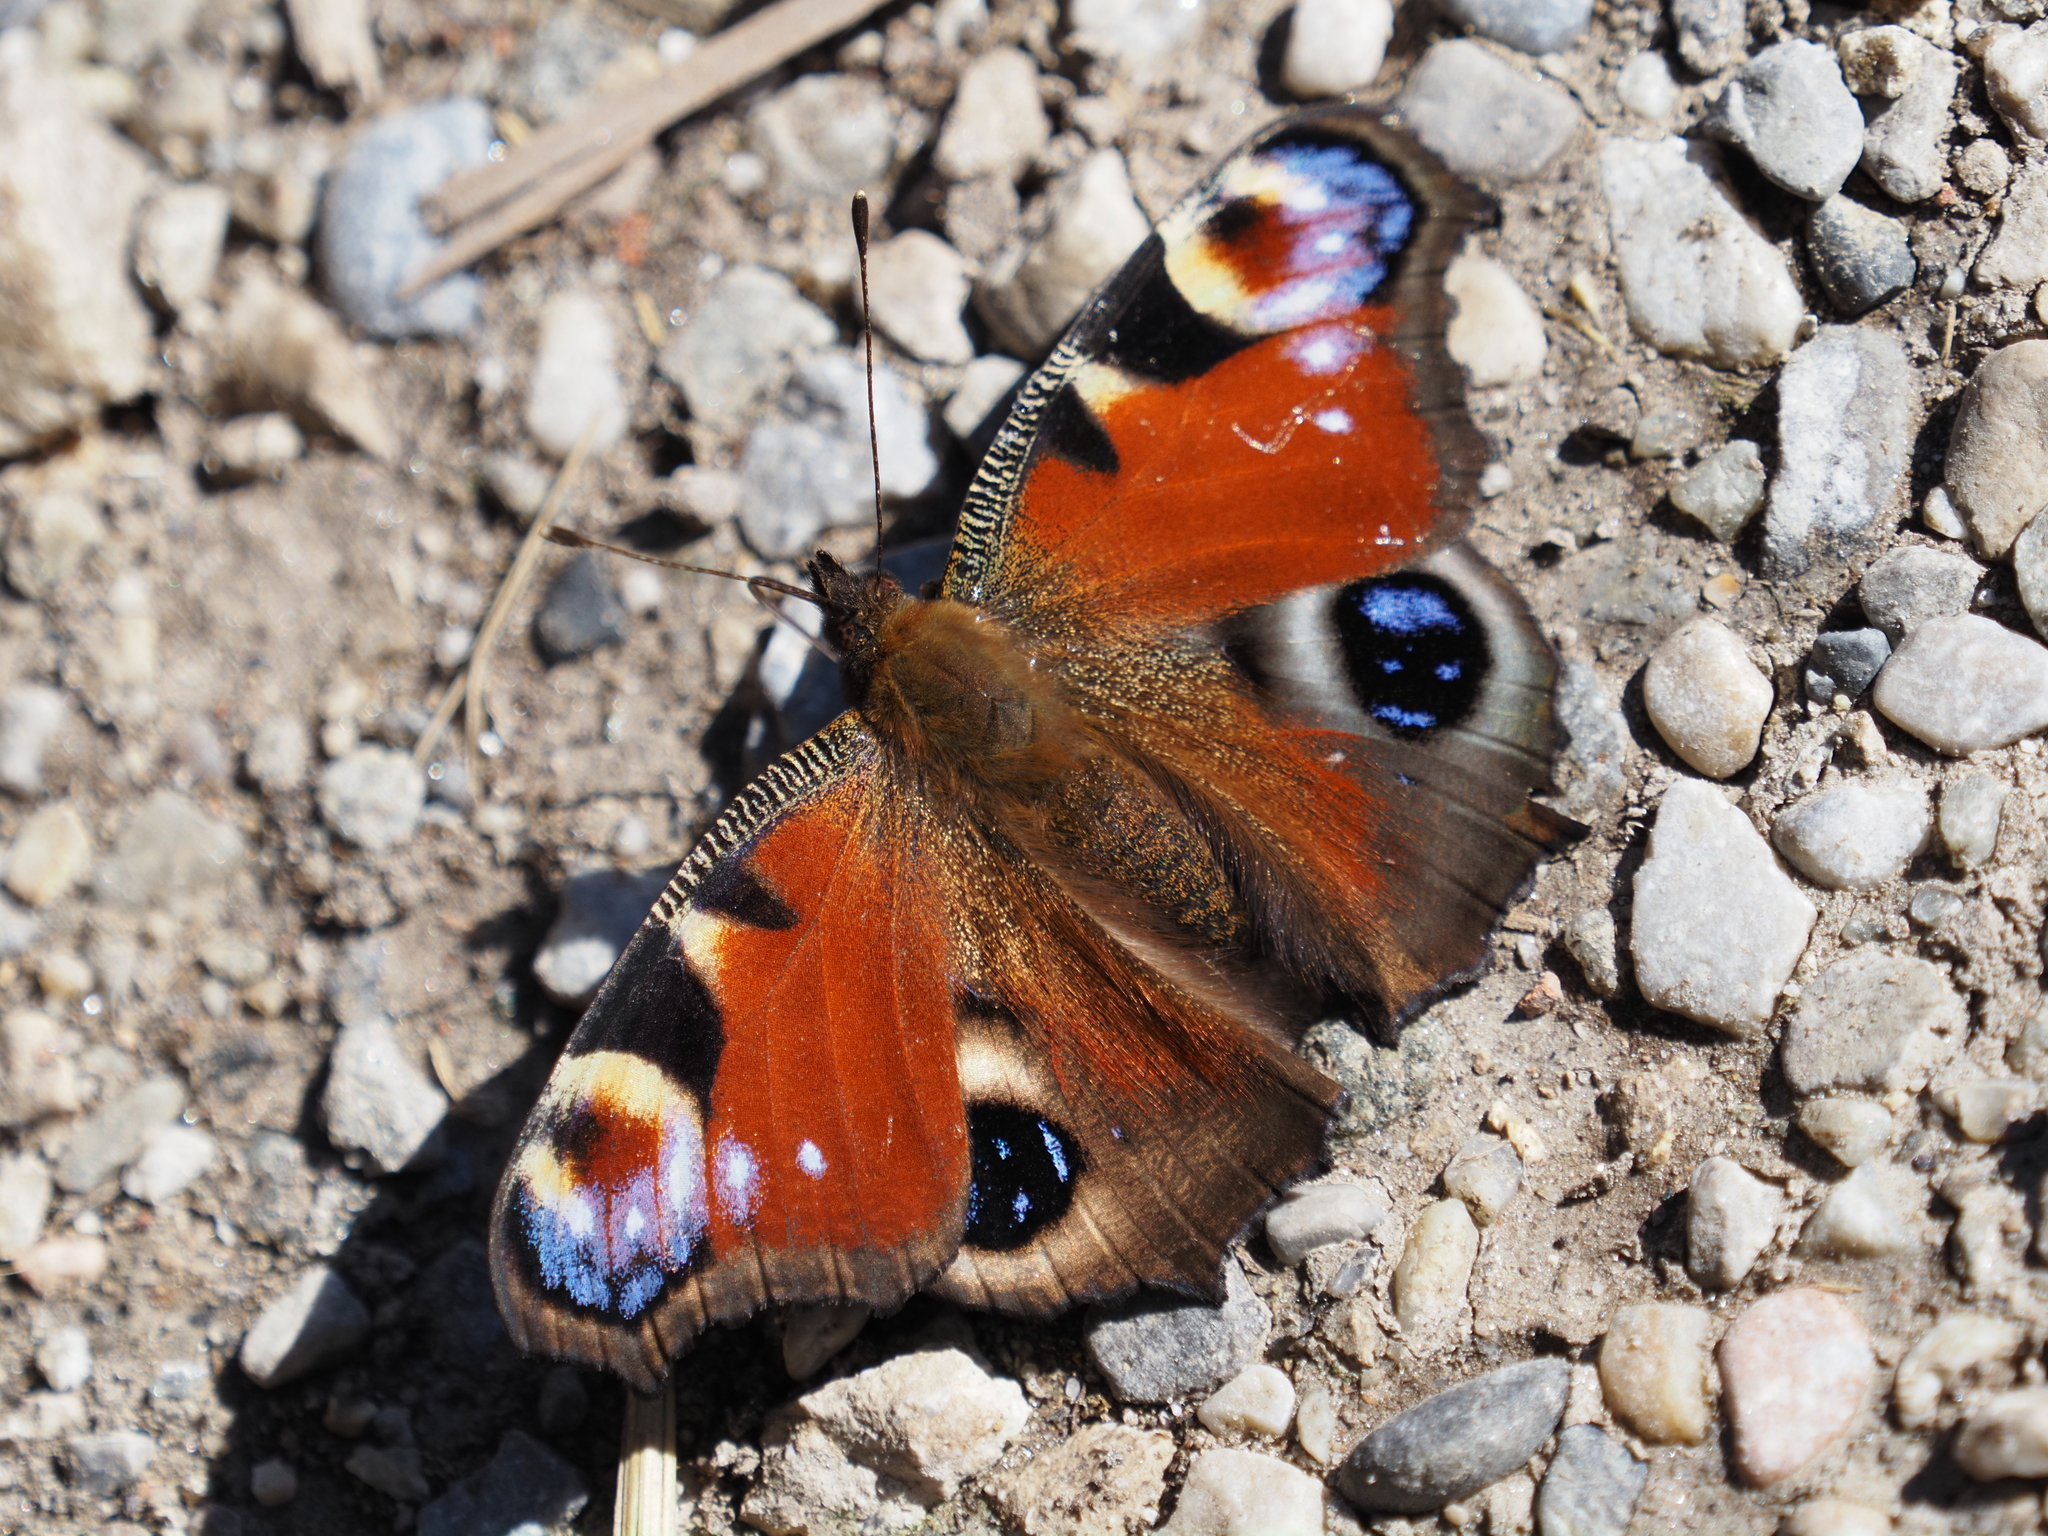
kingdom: Animalia
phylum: Arthropoda
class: Insecta
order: Lepidoptera
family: Nymphalidae
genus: Aglais
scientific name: Aglais io
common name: Peacock
